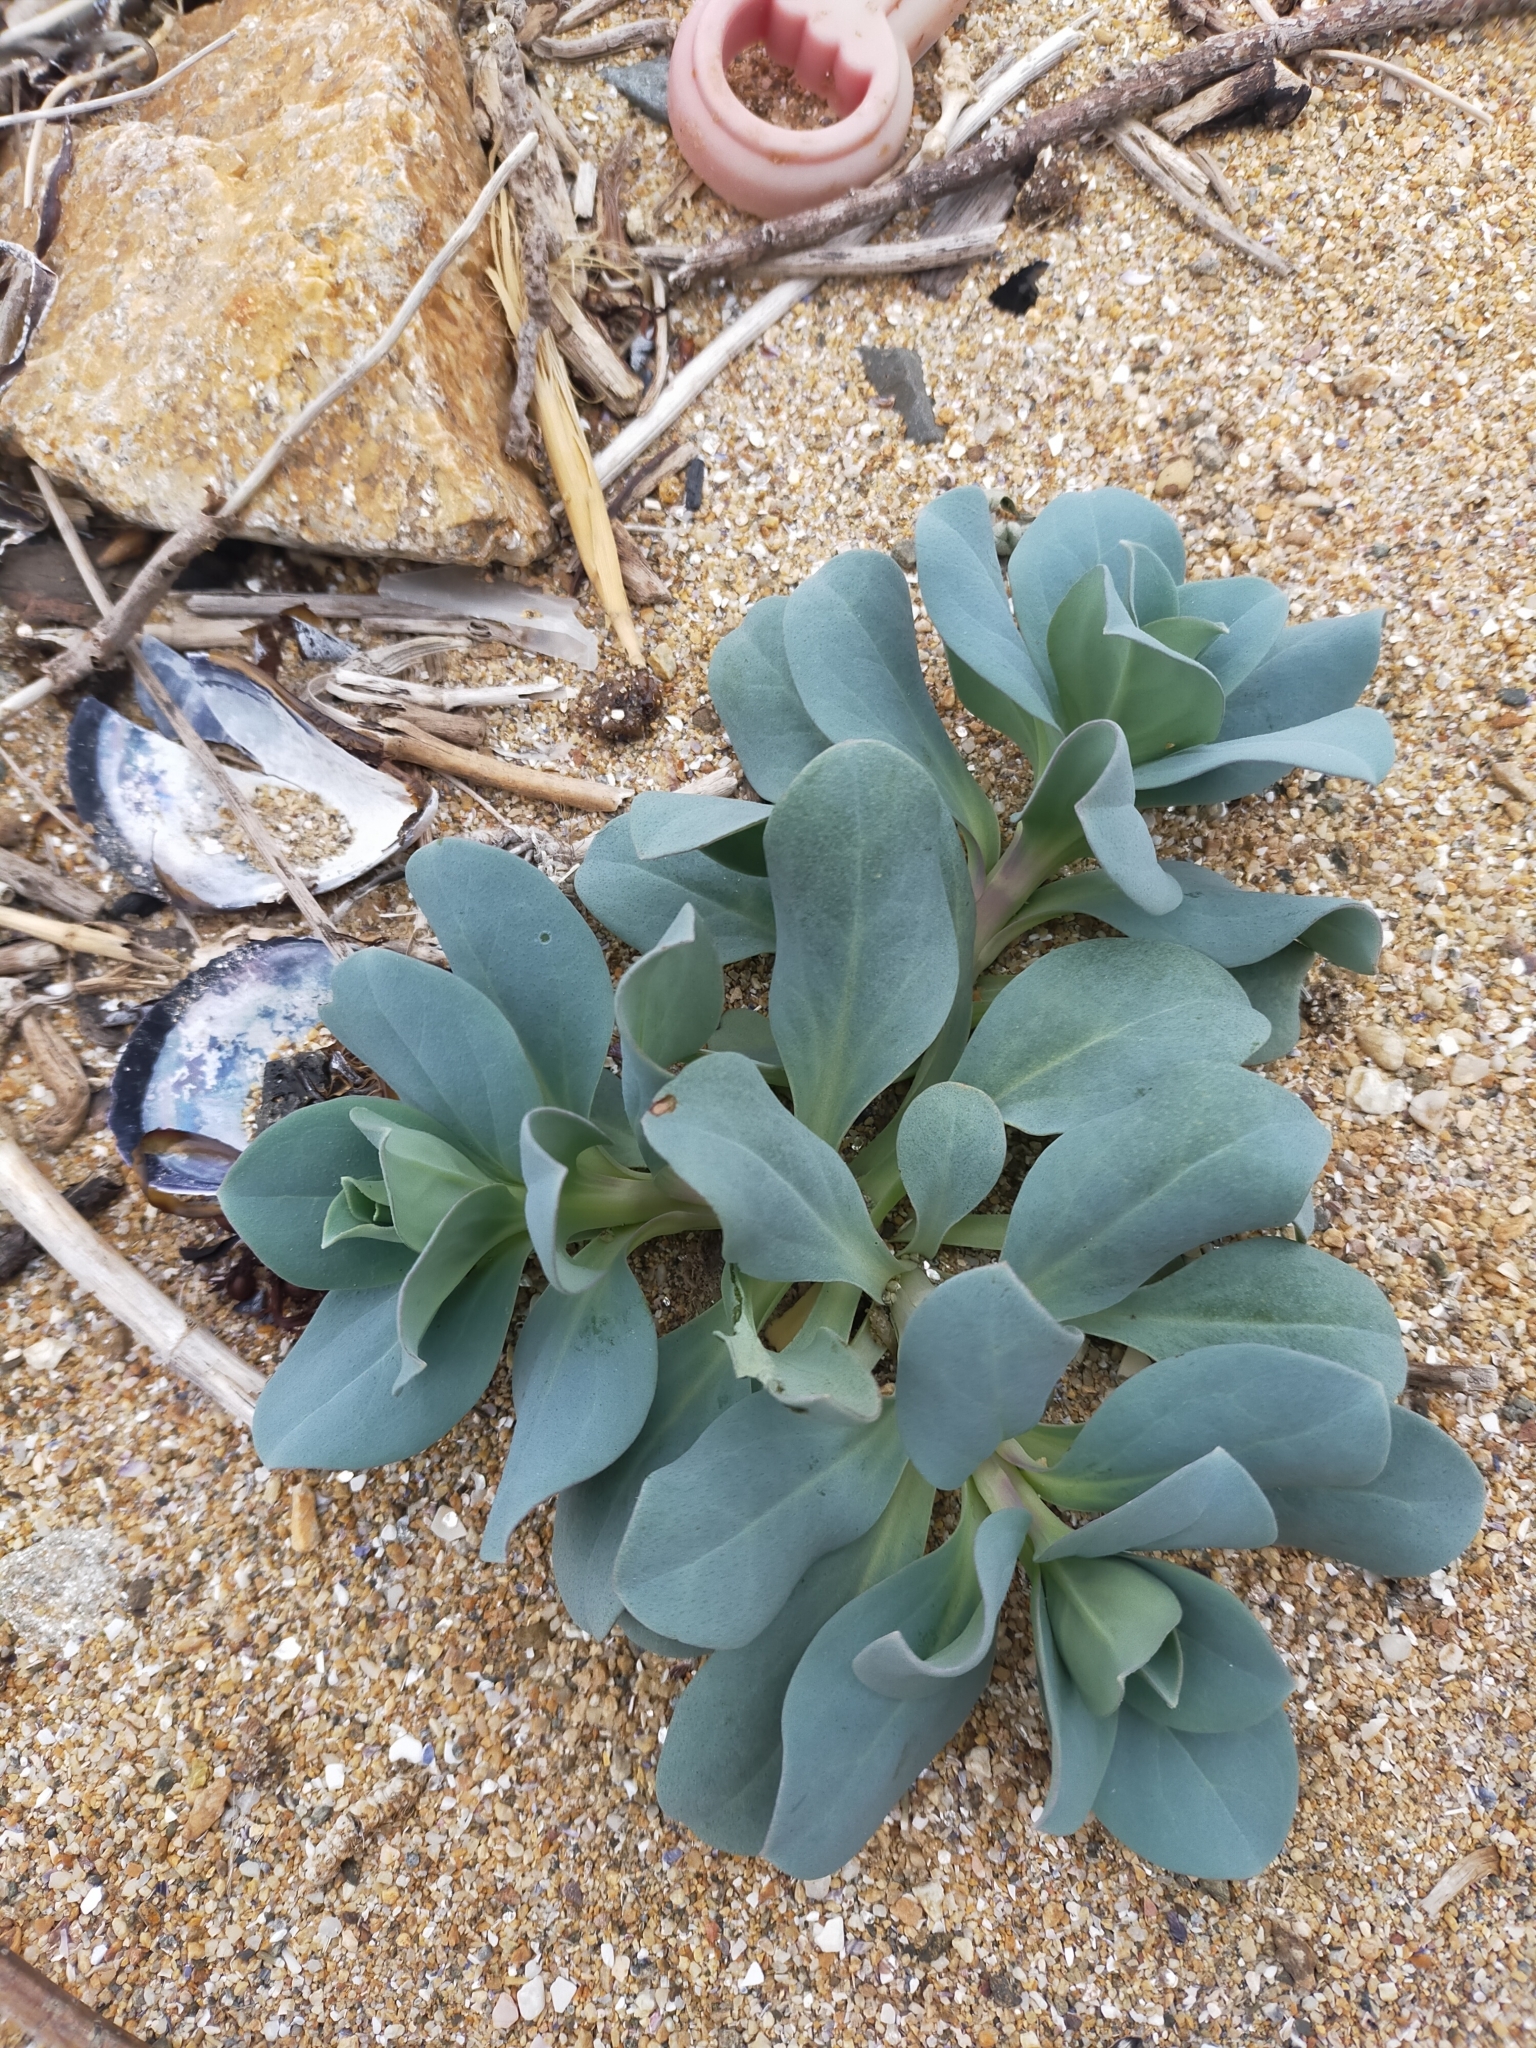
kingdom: Plantae
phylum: Tracheophyta
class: Magnoliopsida
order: Boraginales
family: Boraginaceae
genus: Mertensia
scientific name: Mertensia simplicissima
